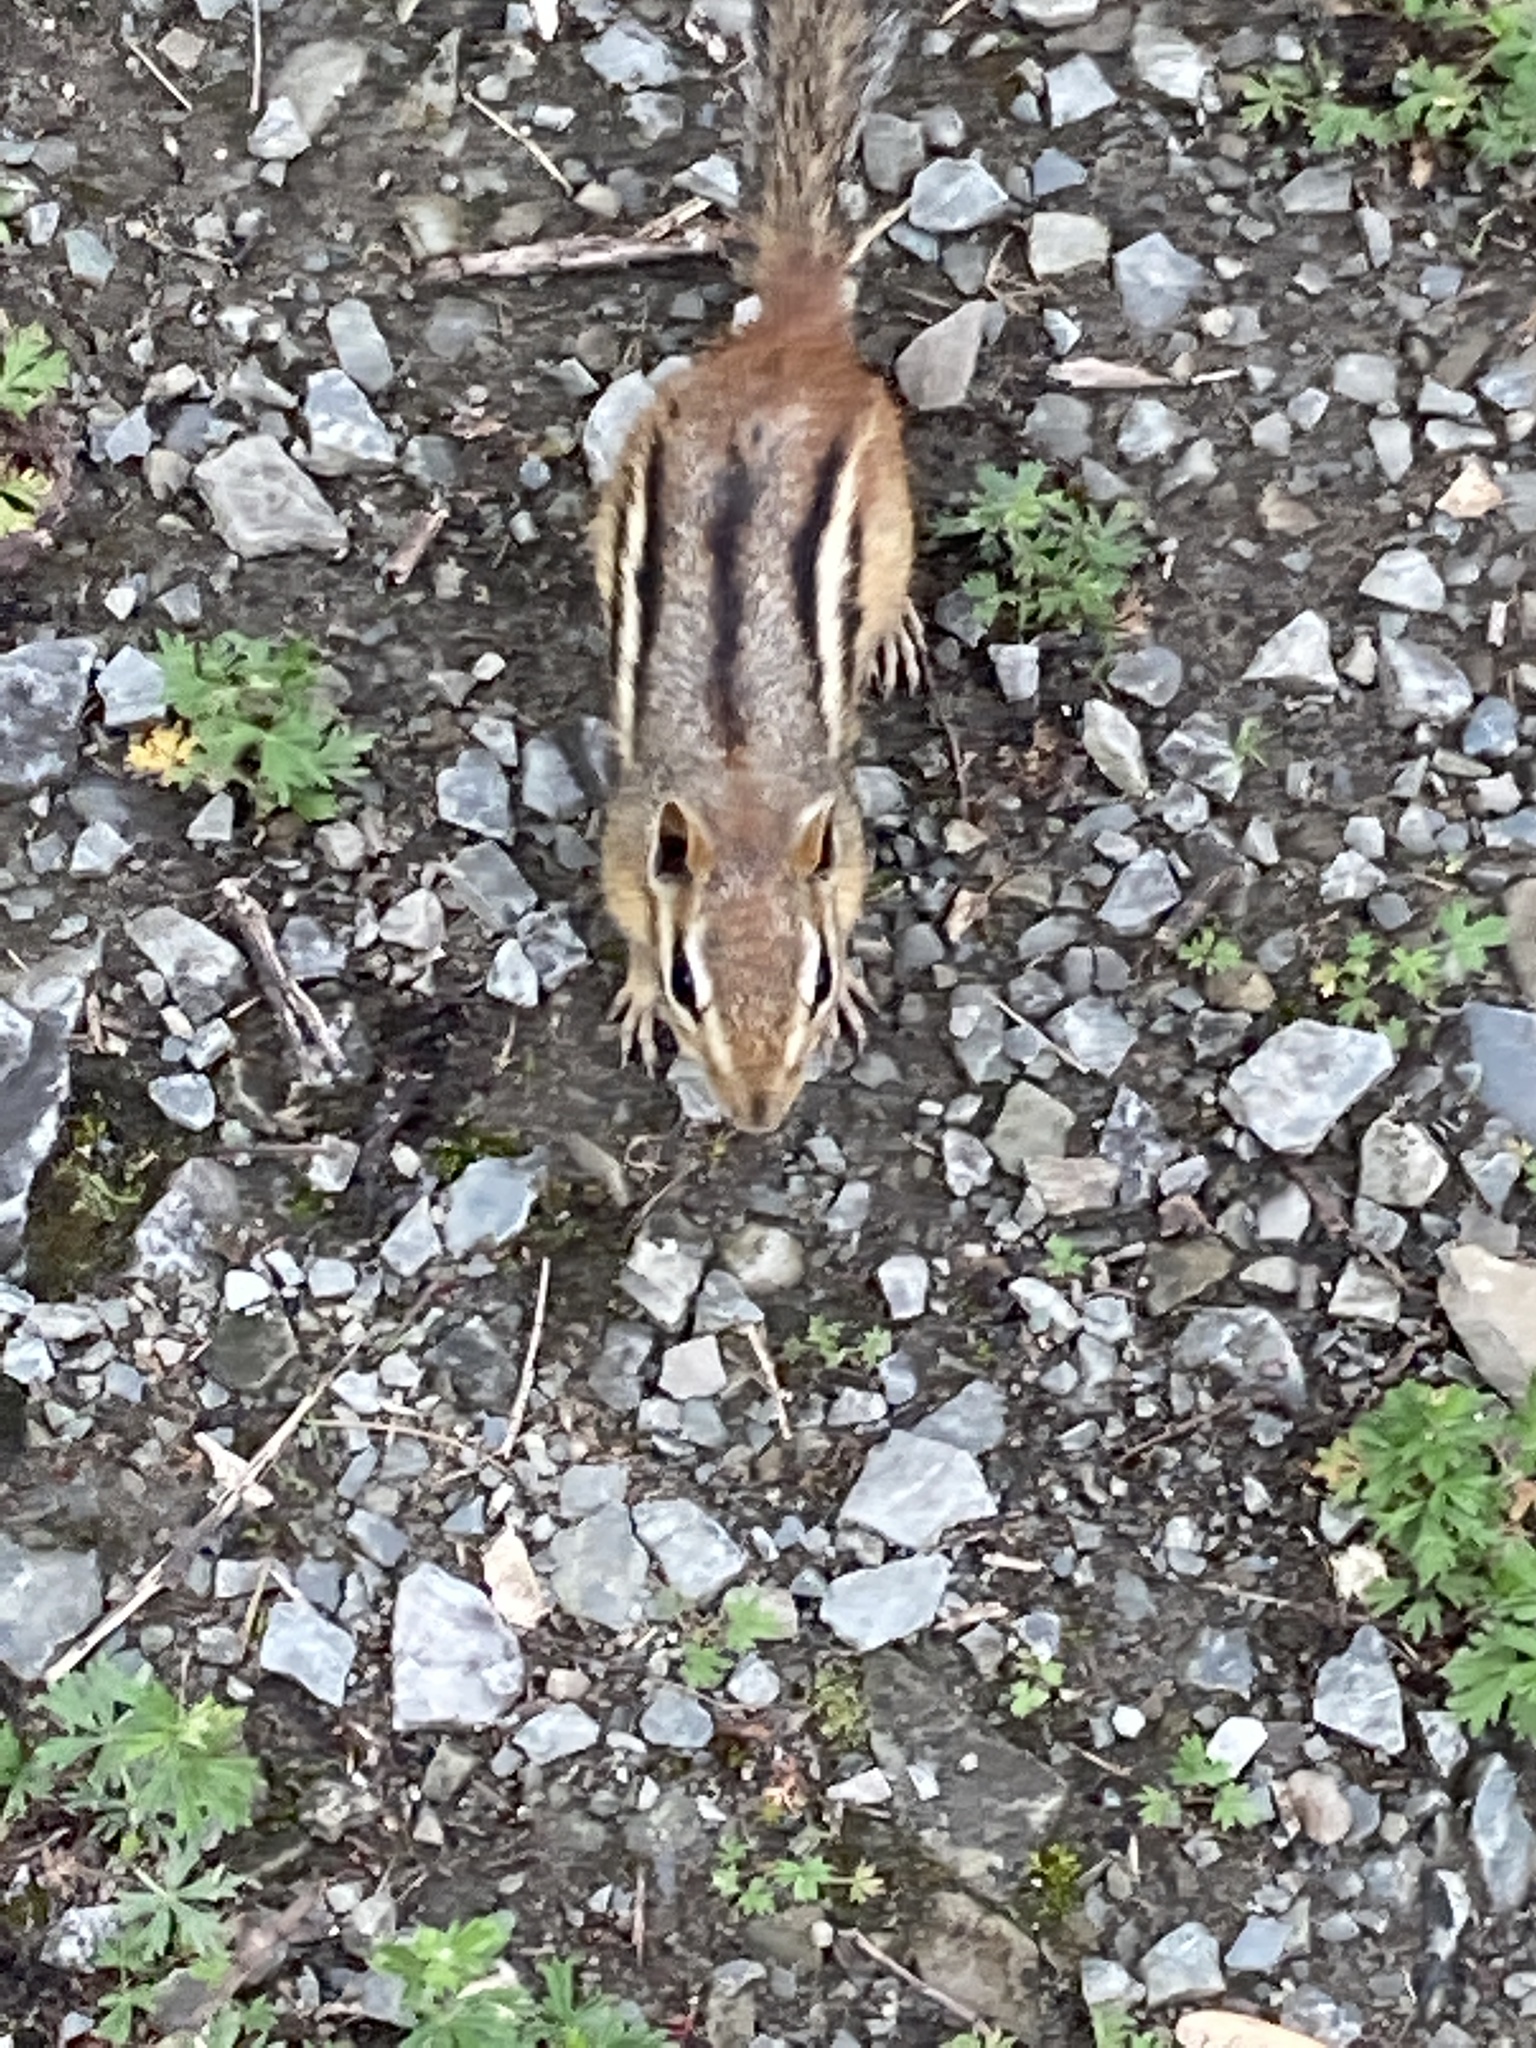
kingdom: Animalia
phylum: Chordata
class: Mammalia
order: Rodentia
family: Sciuridae
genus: Tamias
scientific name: Tamias striatus
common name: Eastern chipmunk
